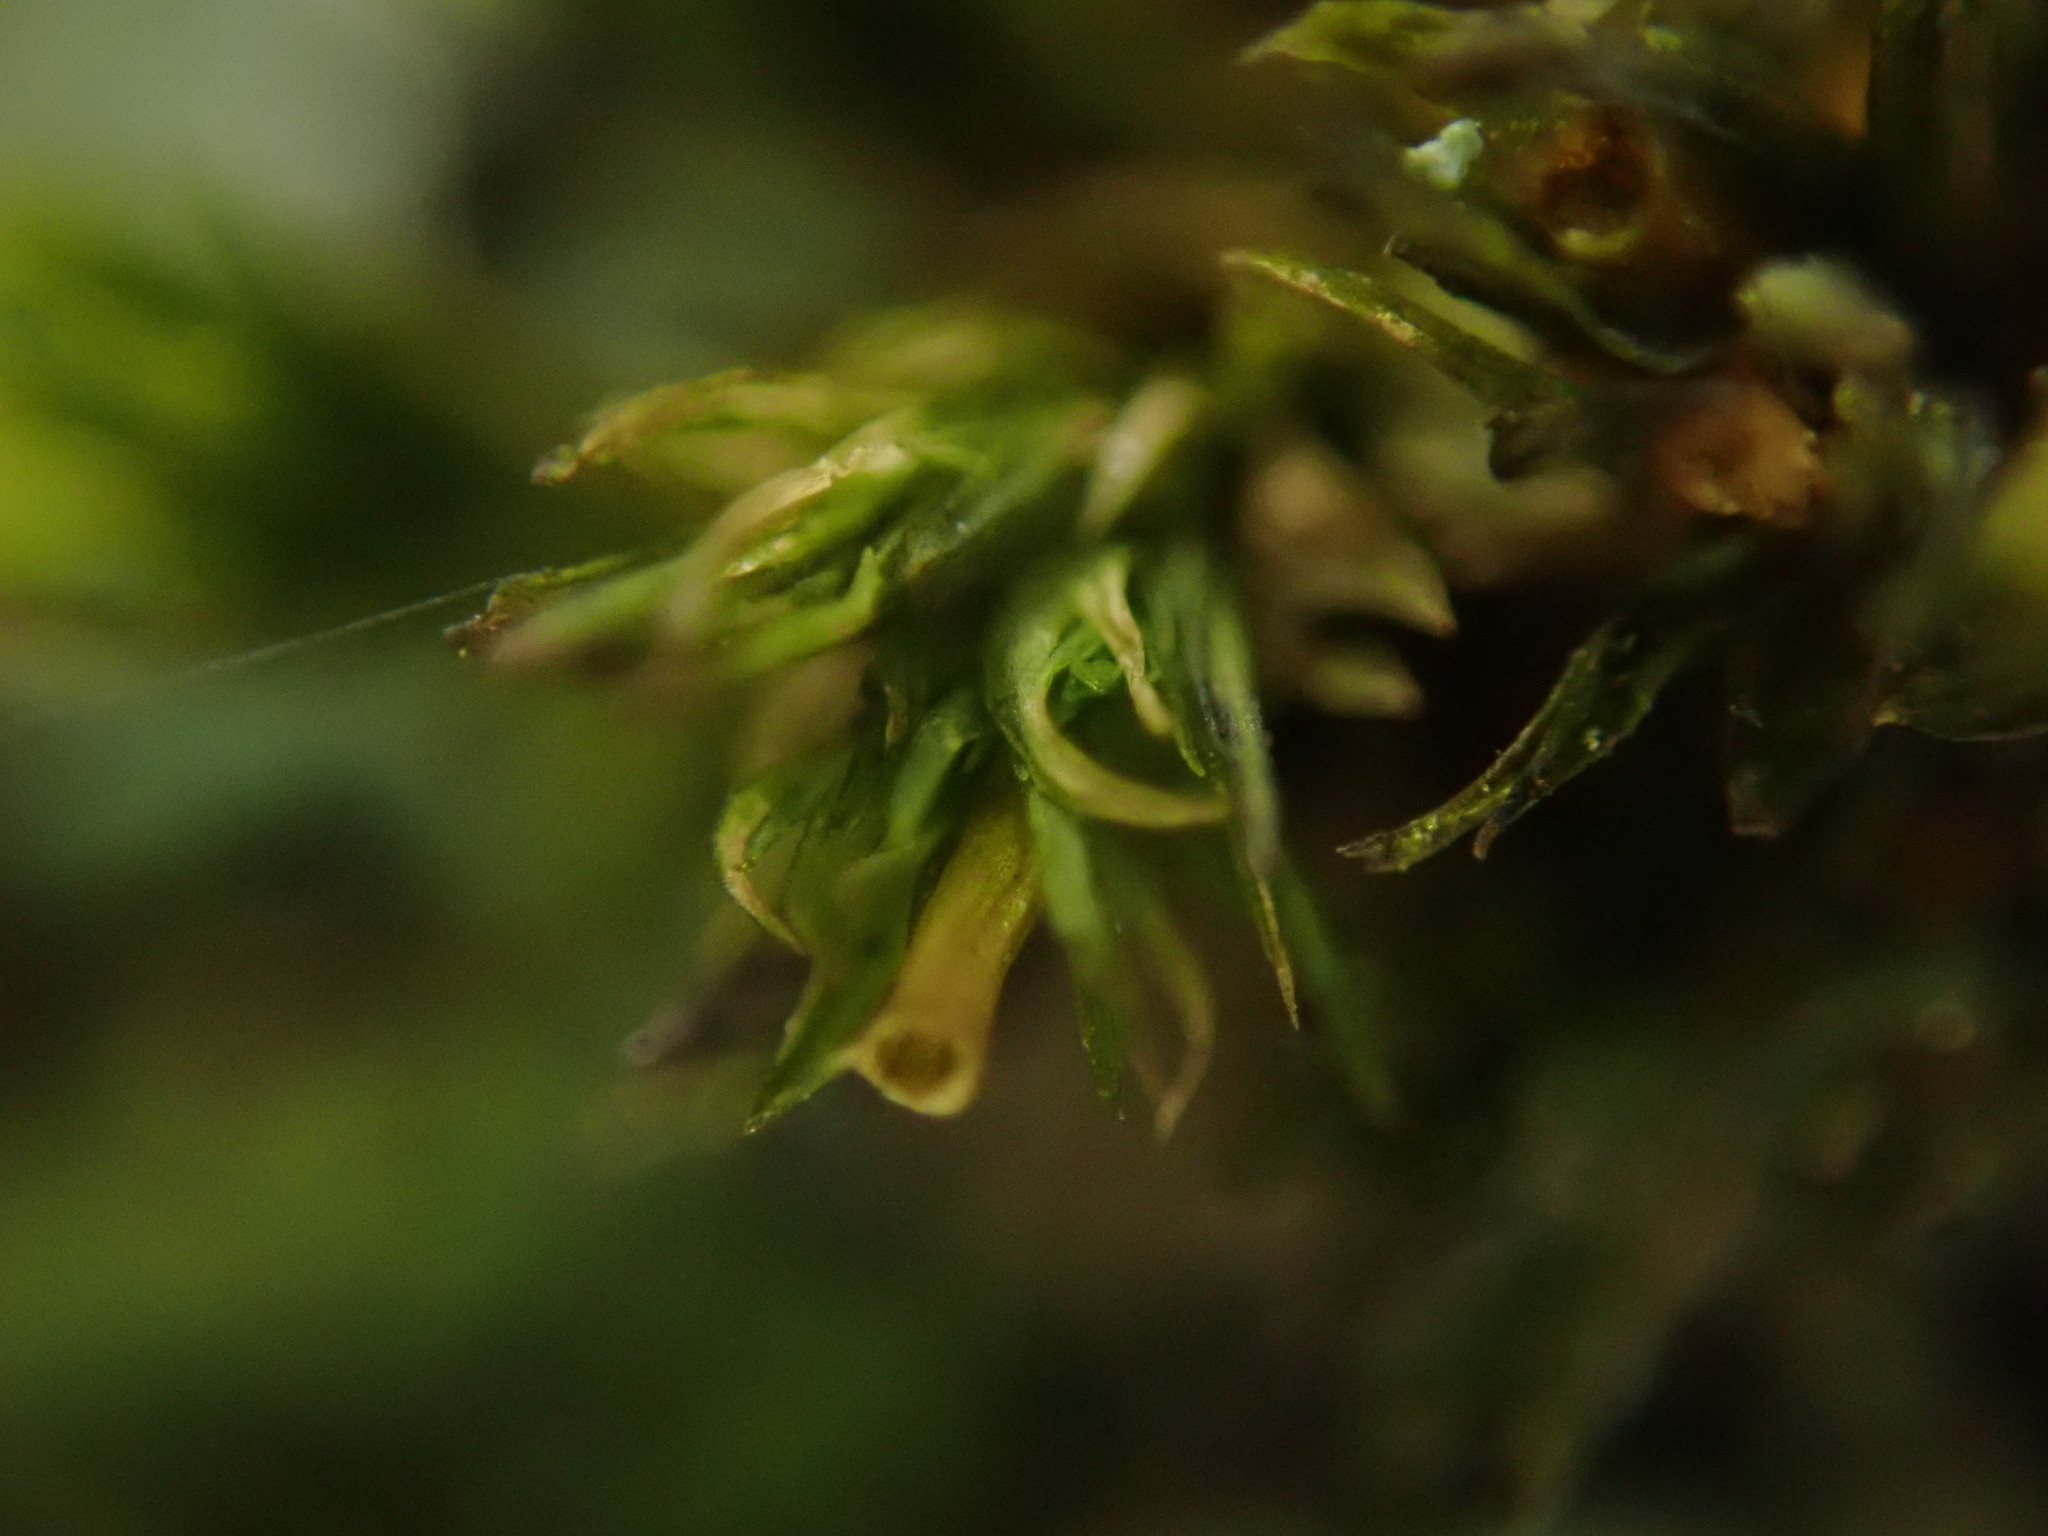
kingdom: Plantae
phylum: Bryophyta
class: Bryopsida
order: Orthotrichales
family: Orthotrichaceae
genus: Lewinskya
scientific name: Lewinskya affinis
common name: Wood bristle-moss
